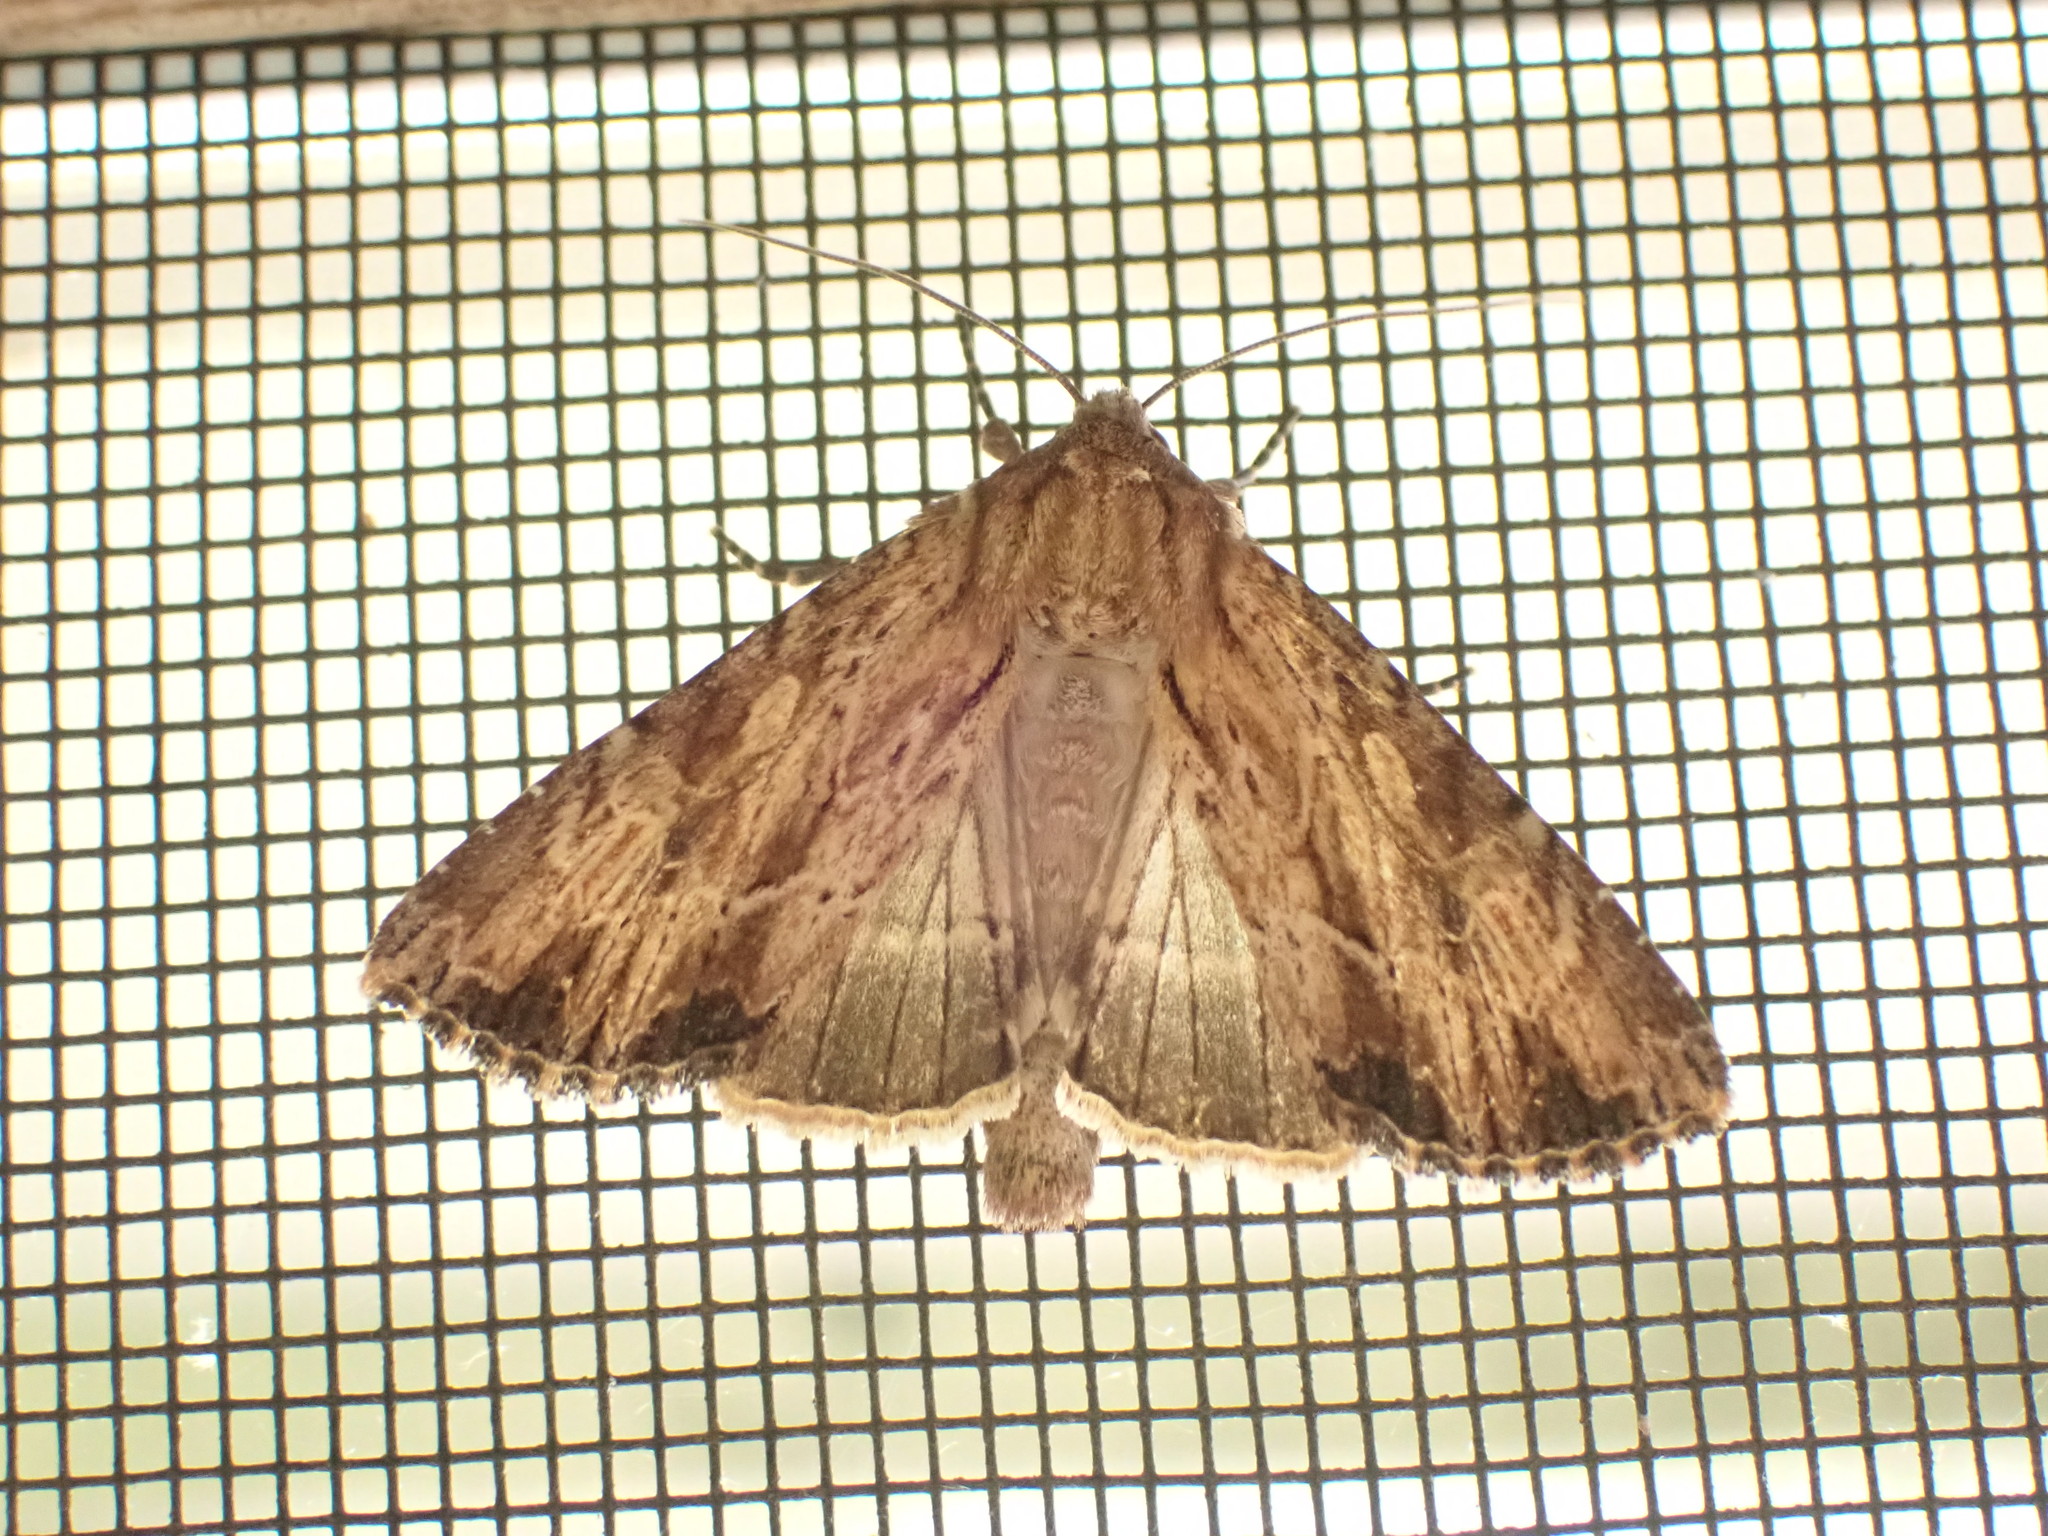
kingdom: Animalia
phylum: Arthropoda
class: Insecta
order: Lepidoptera
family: Noctuidae
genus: Apamea
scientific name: Apamea lignicolora
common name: Wood-colored apamea moth
